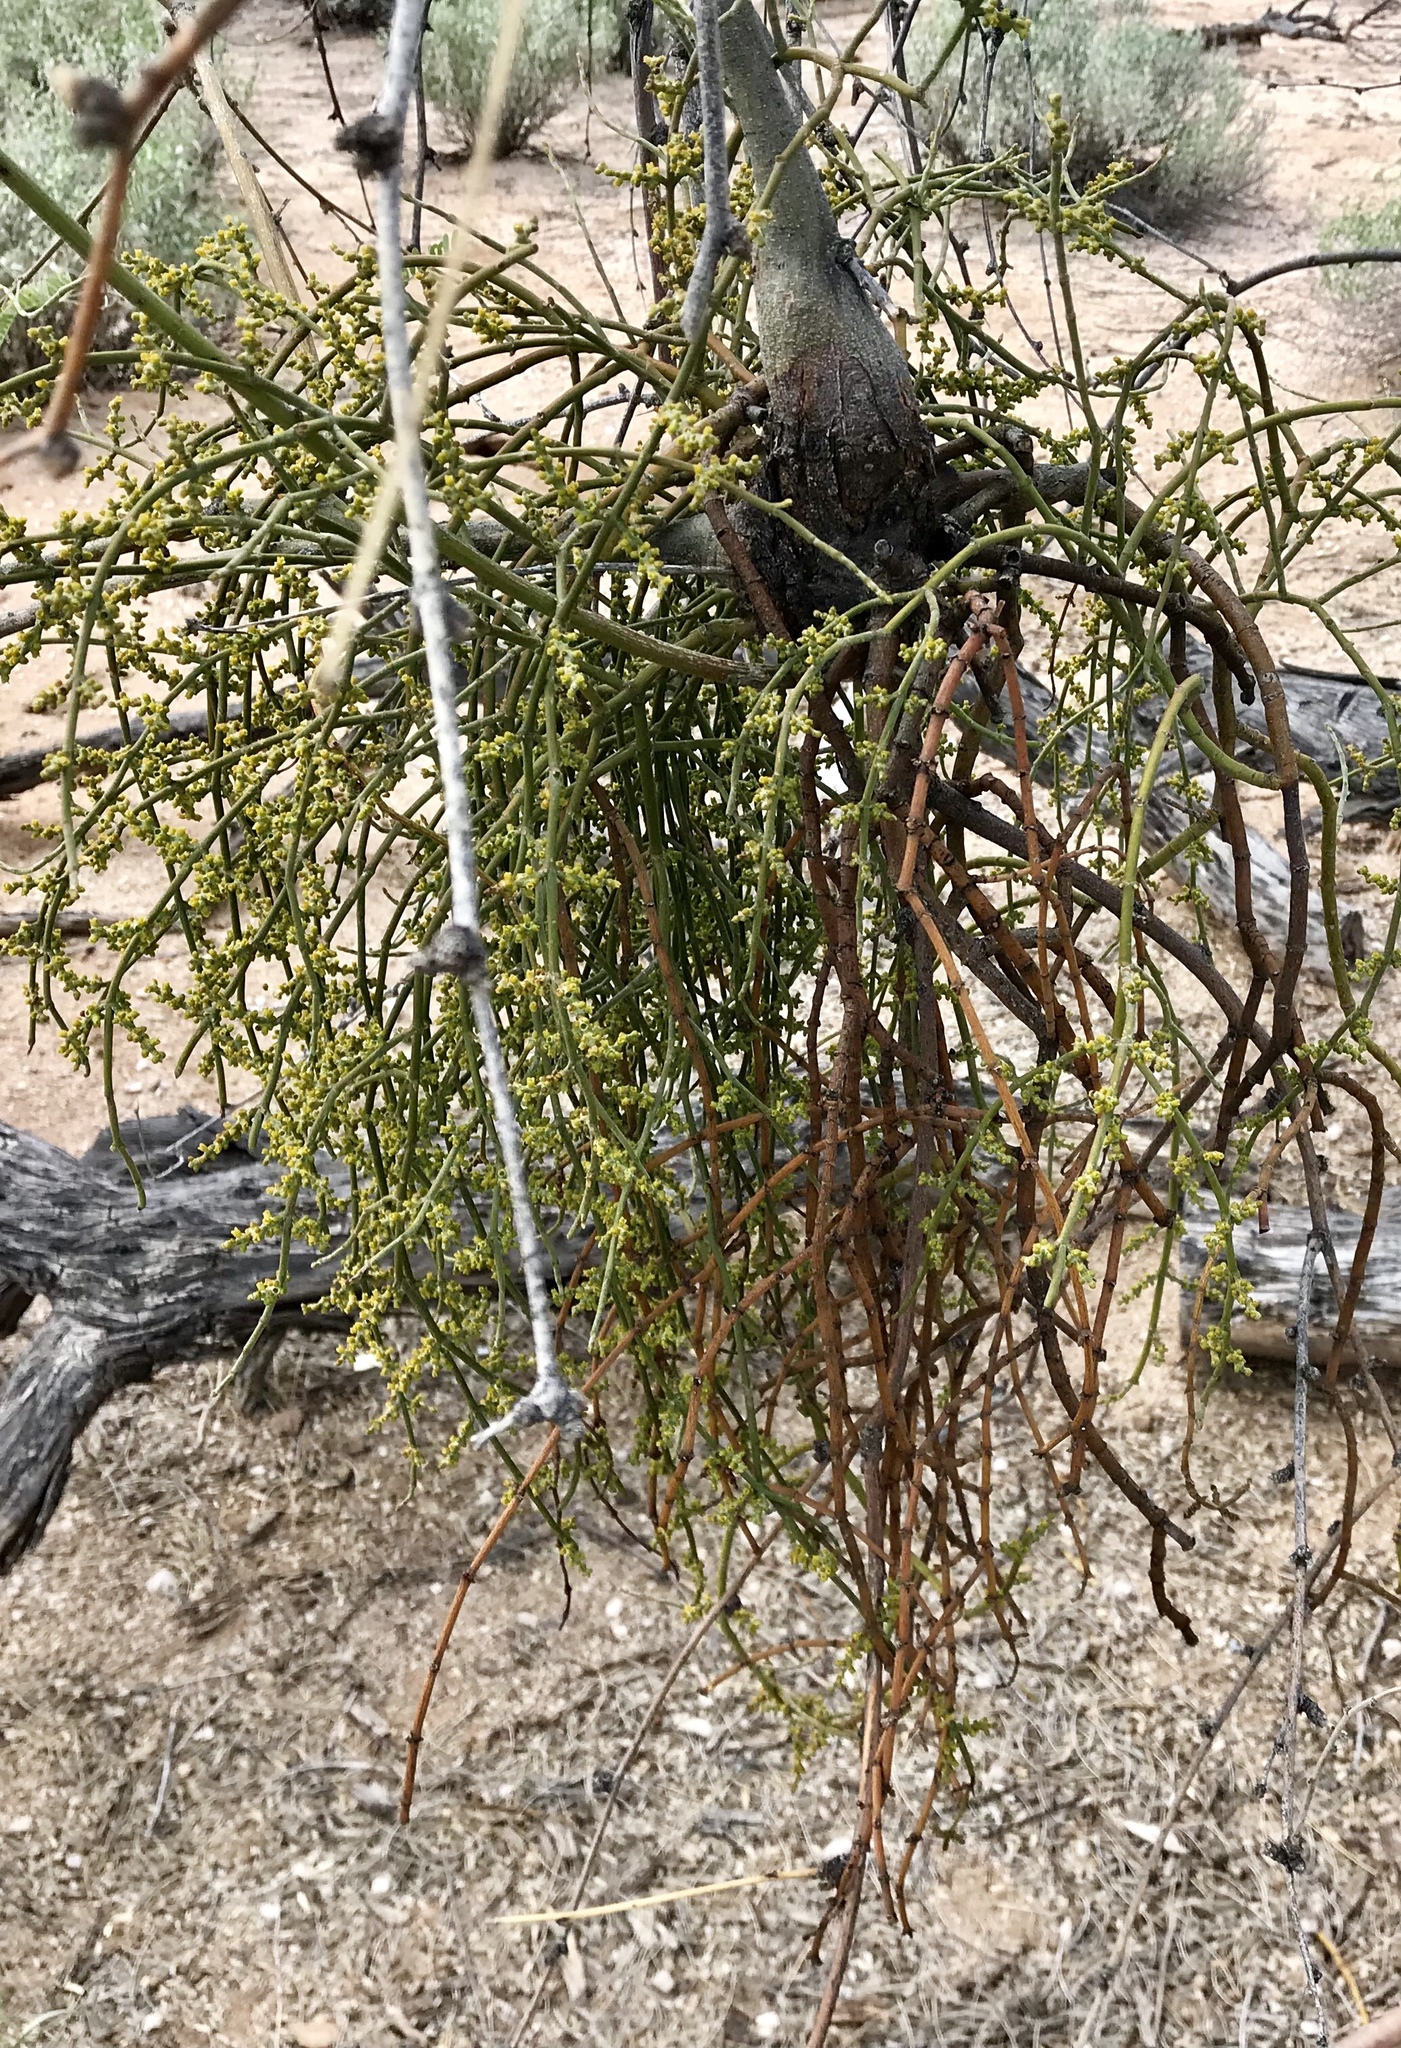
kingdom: Plantae
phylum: Tracheophyta
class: Magnoliopsida
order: Santalales
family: Viscaceae
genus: Phoradendron
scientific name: Phoradendron californicum
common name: Acacia mistletoe
